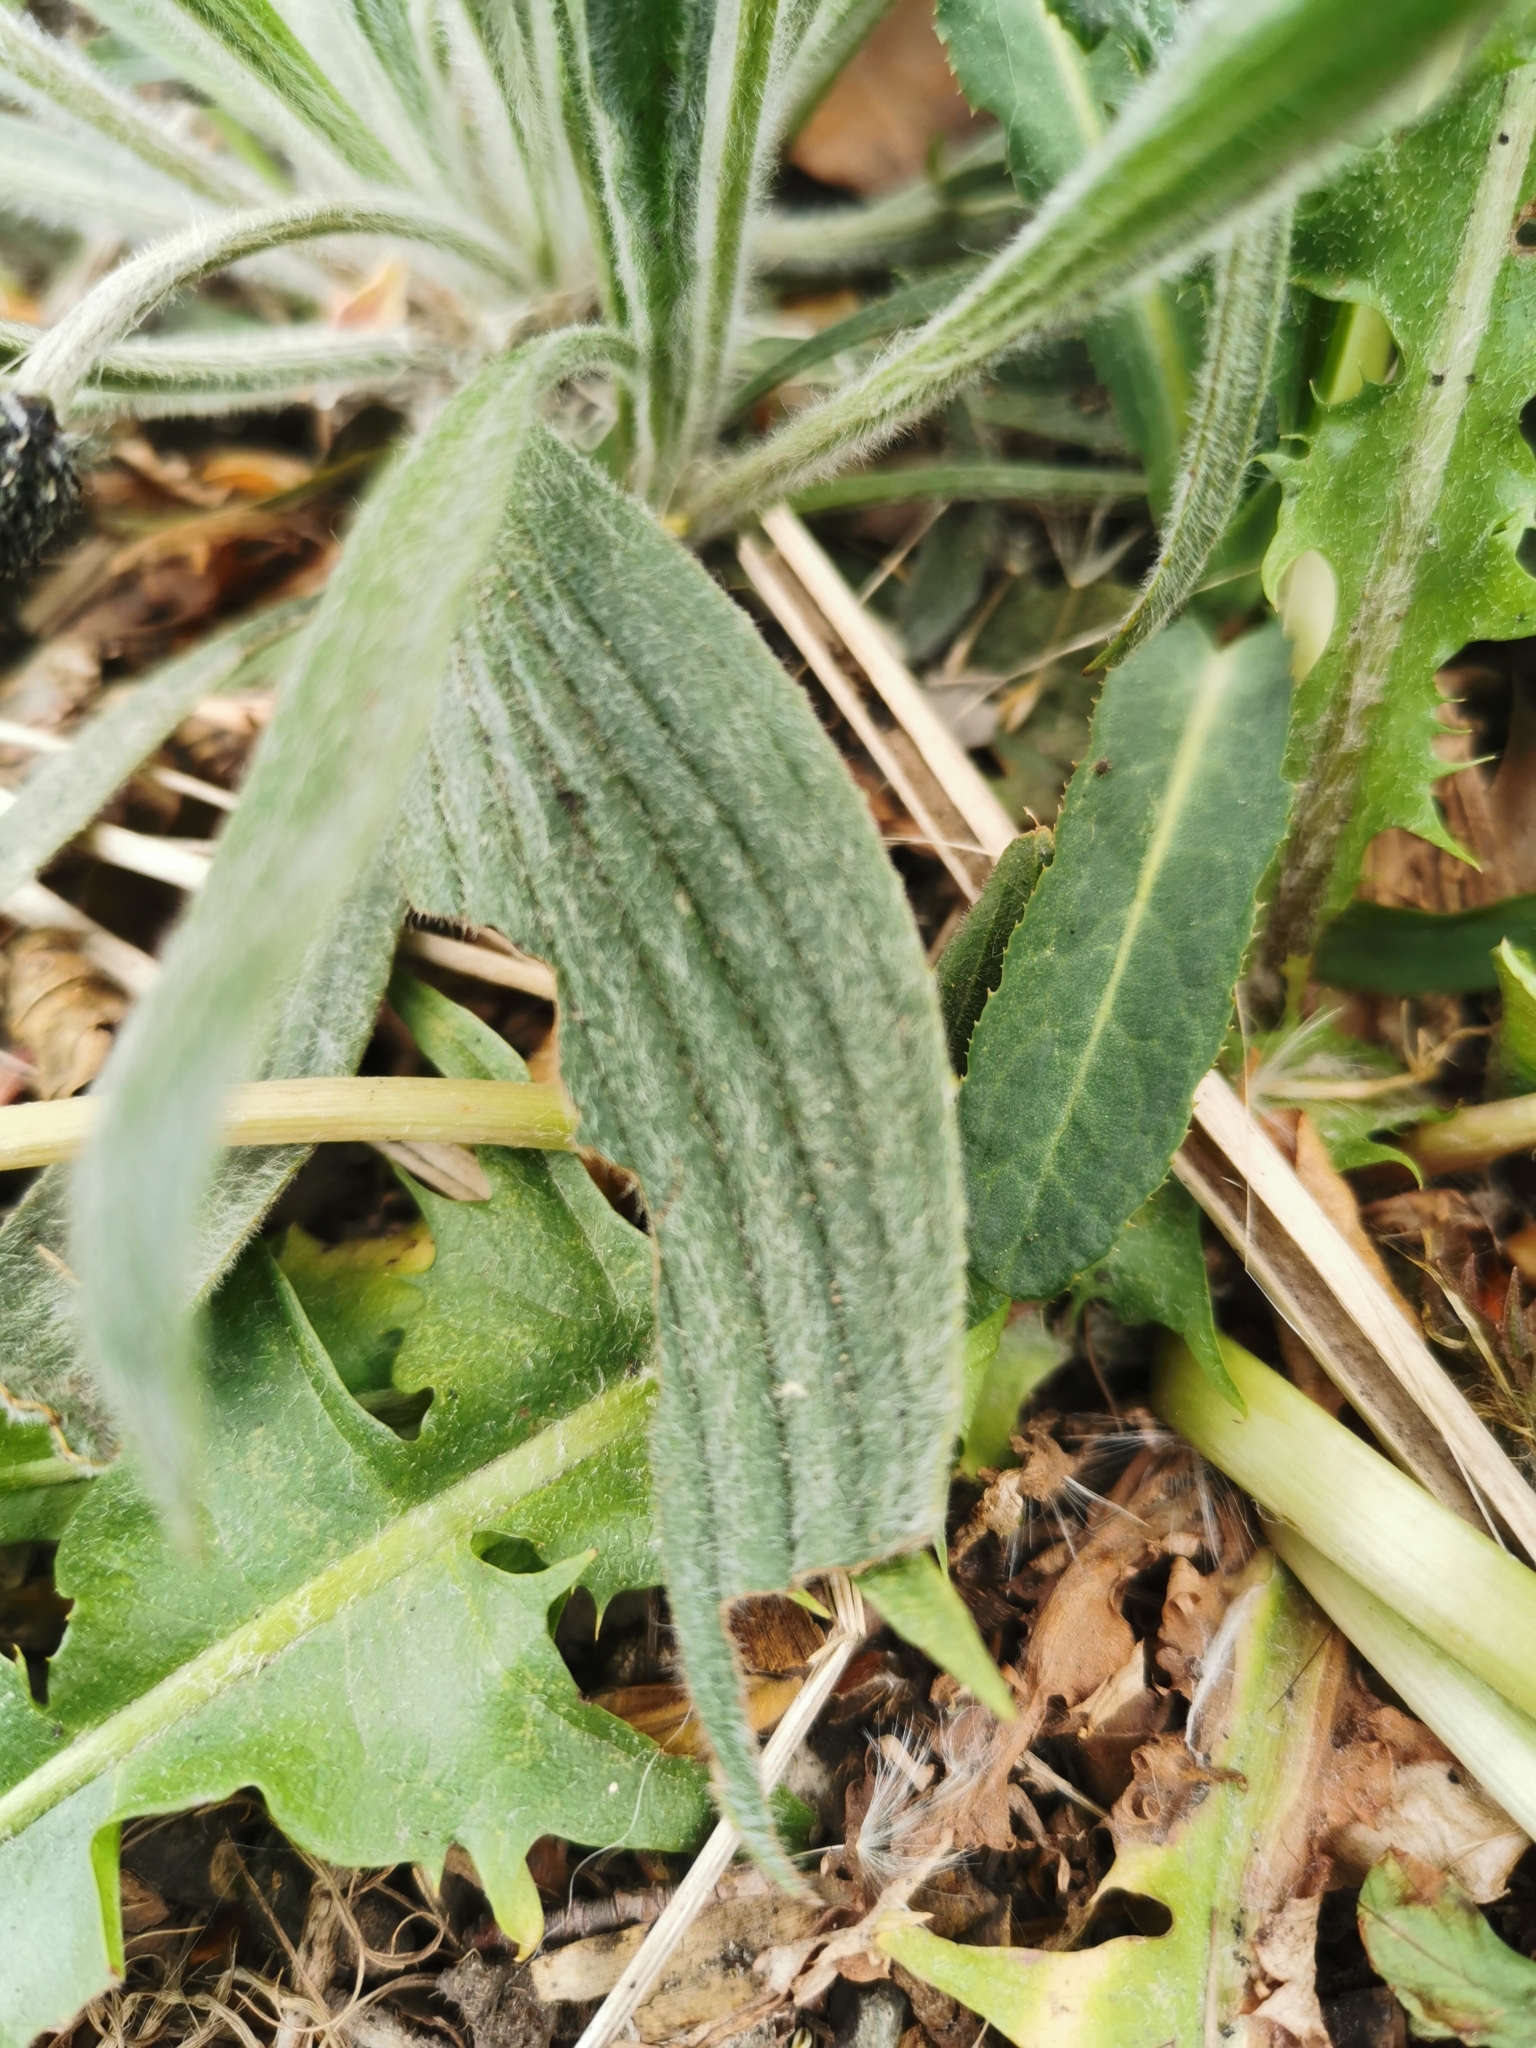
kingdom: Plantae
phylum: Tracheophyta
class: Magnoliopsida
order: Lamiales
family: Plantaginaceae
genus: Plantago
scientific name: Plantago lanceolata
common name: Ribwort plantain
